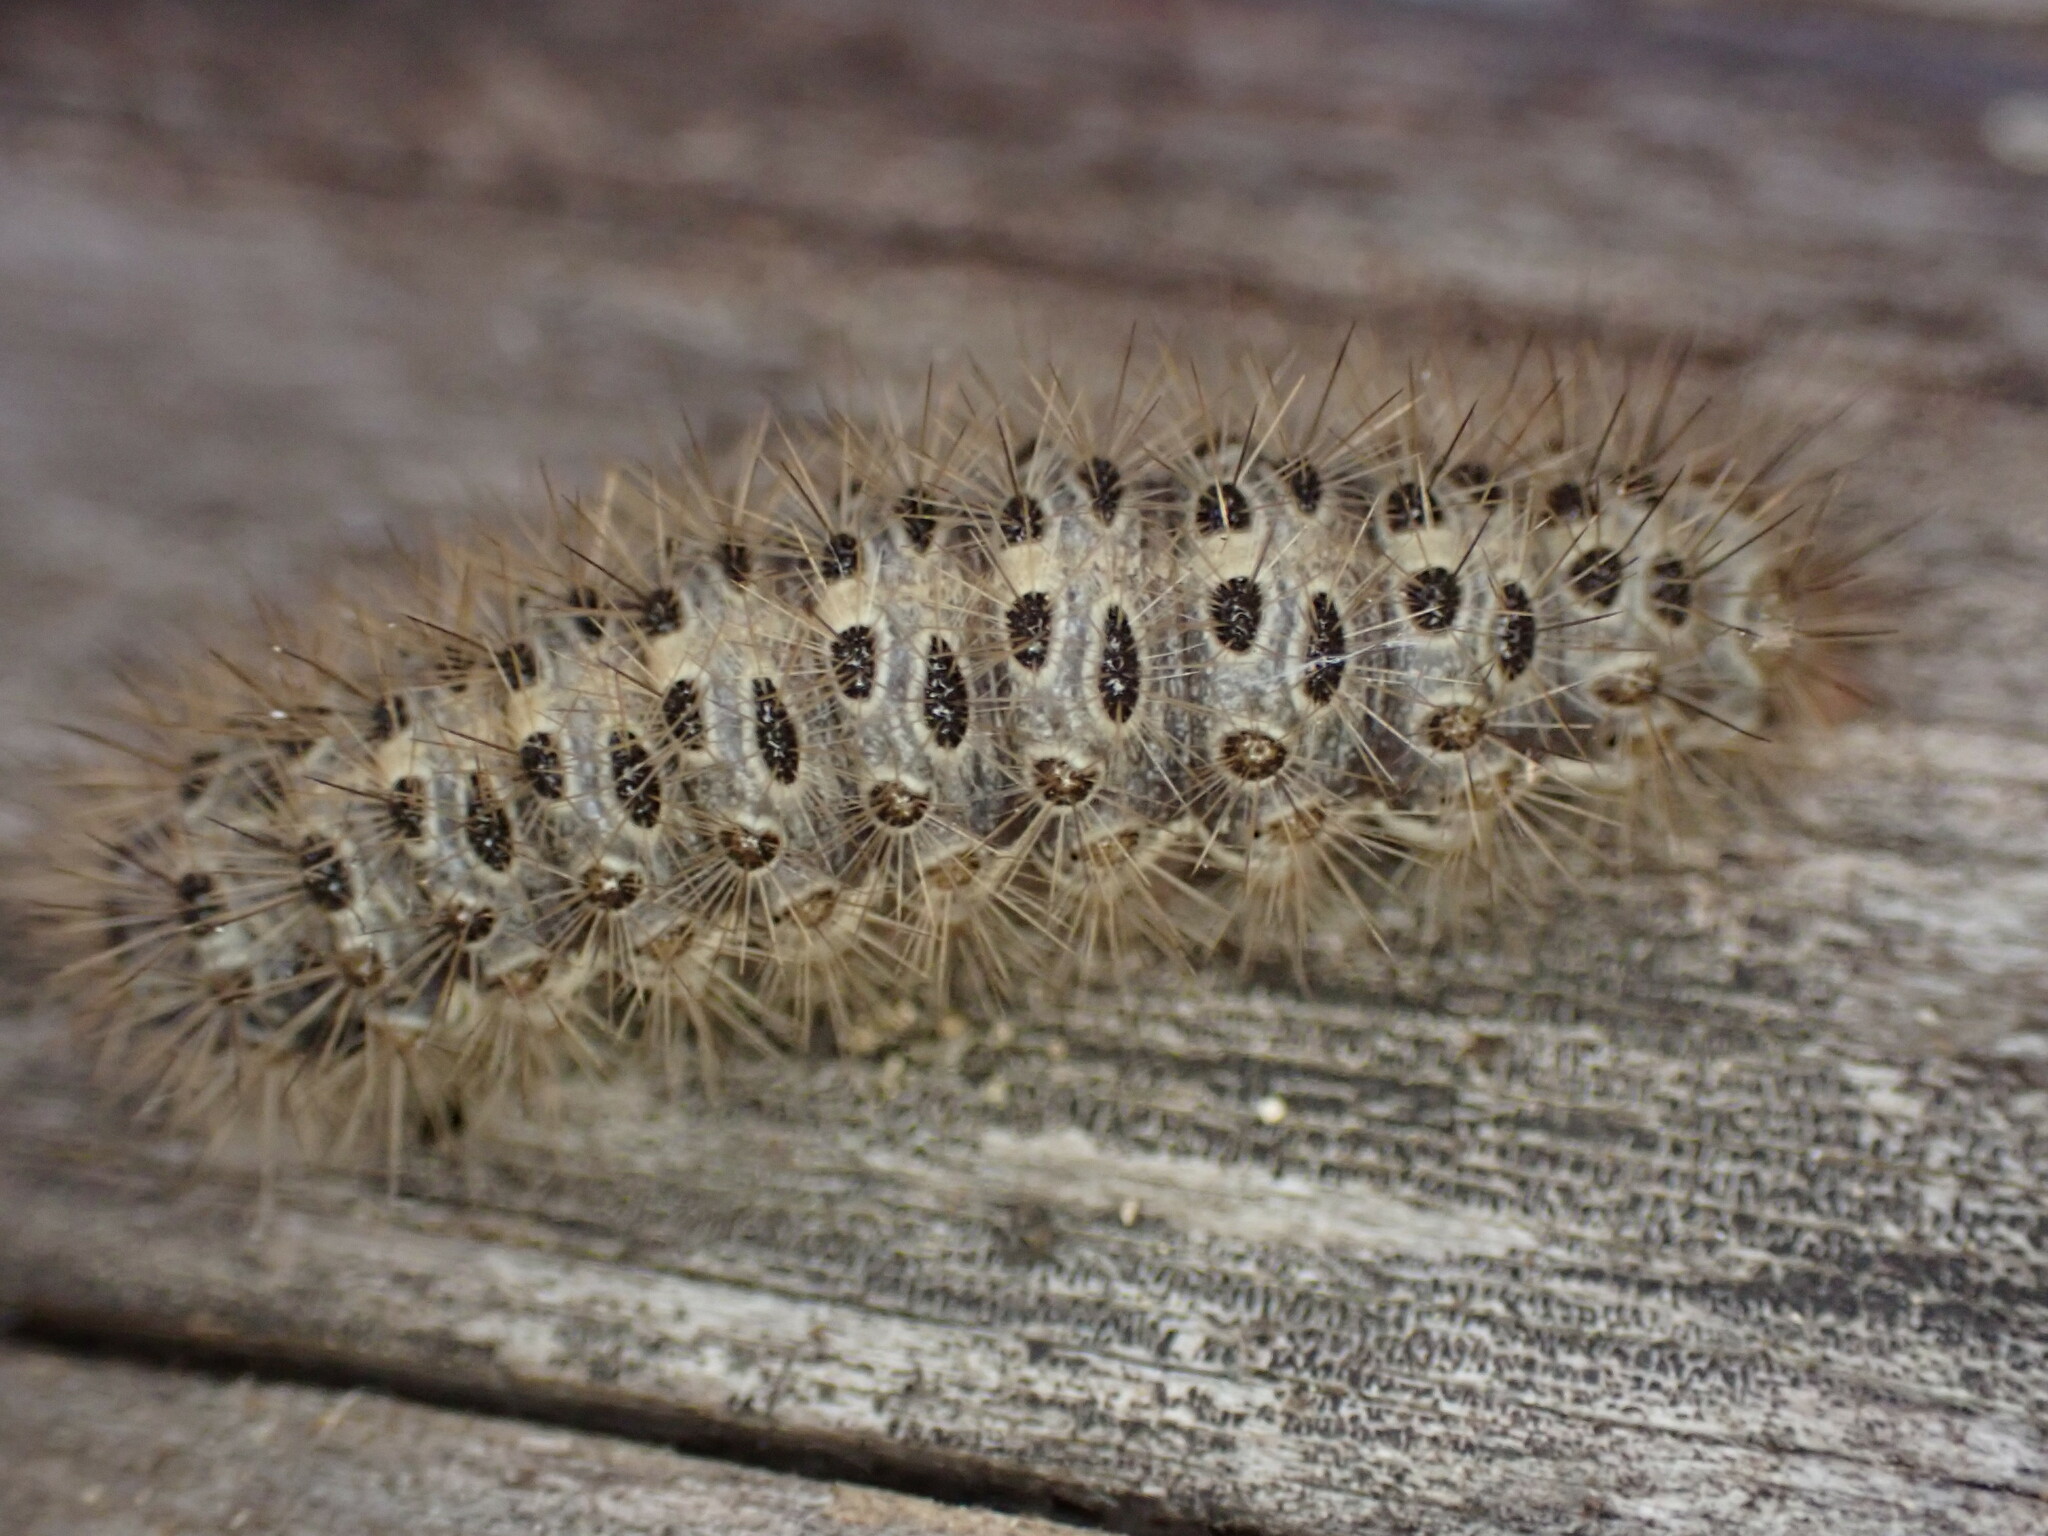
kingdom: Animalia
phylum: Arthropoda
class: Insecta
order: Lepidoptera
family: Erebidae
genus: Cymbalophora
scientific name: Cymbalophora pudica
